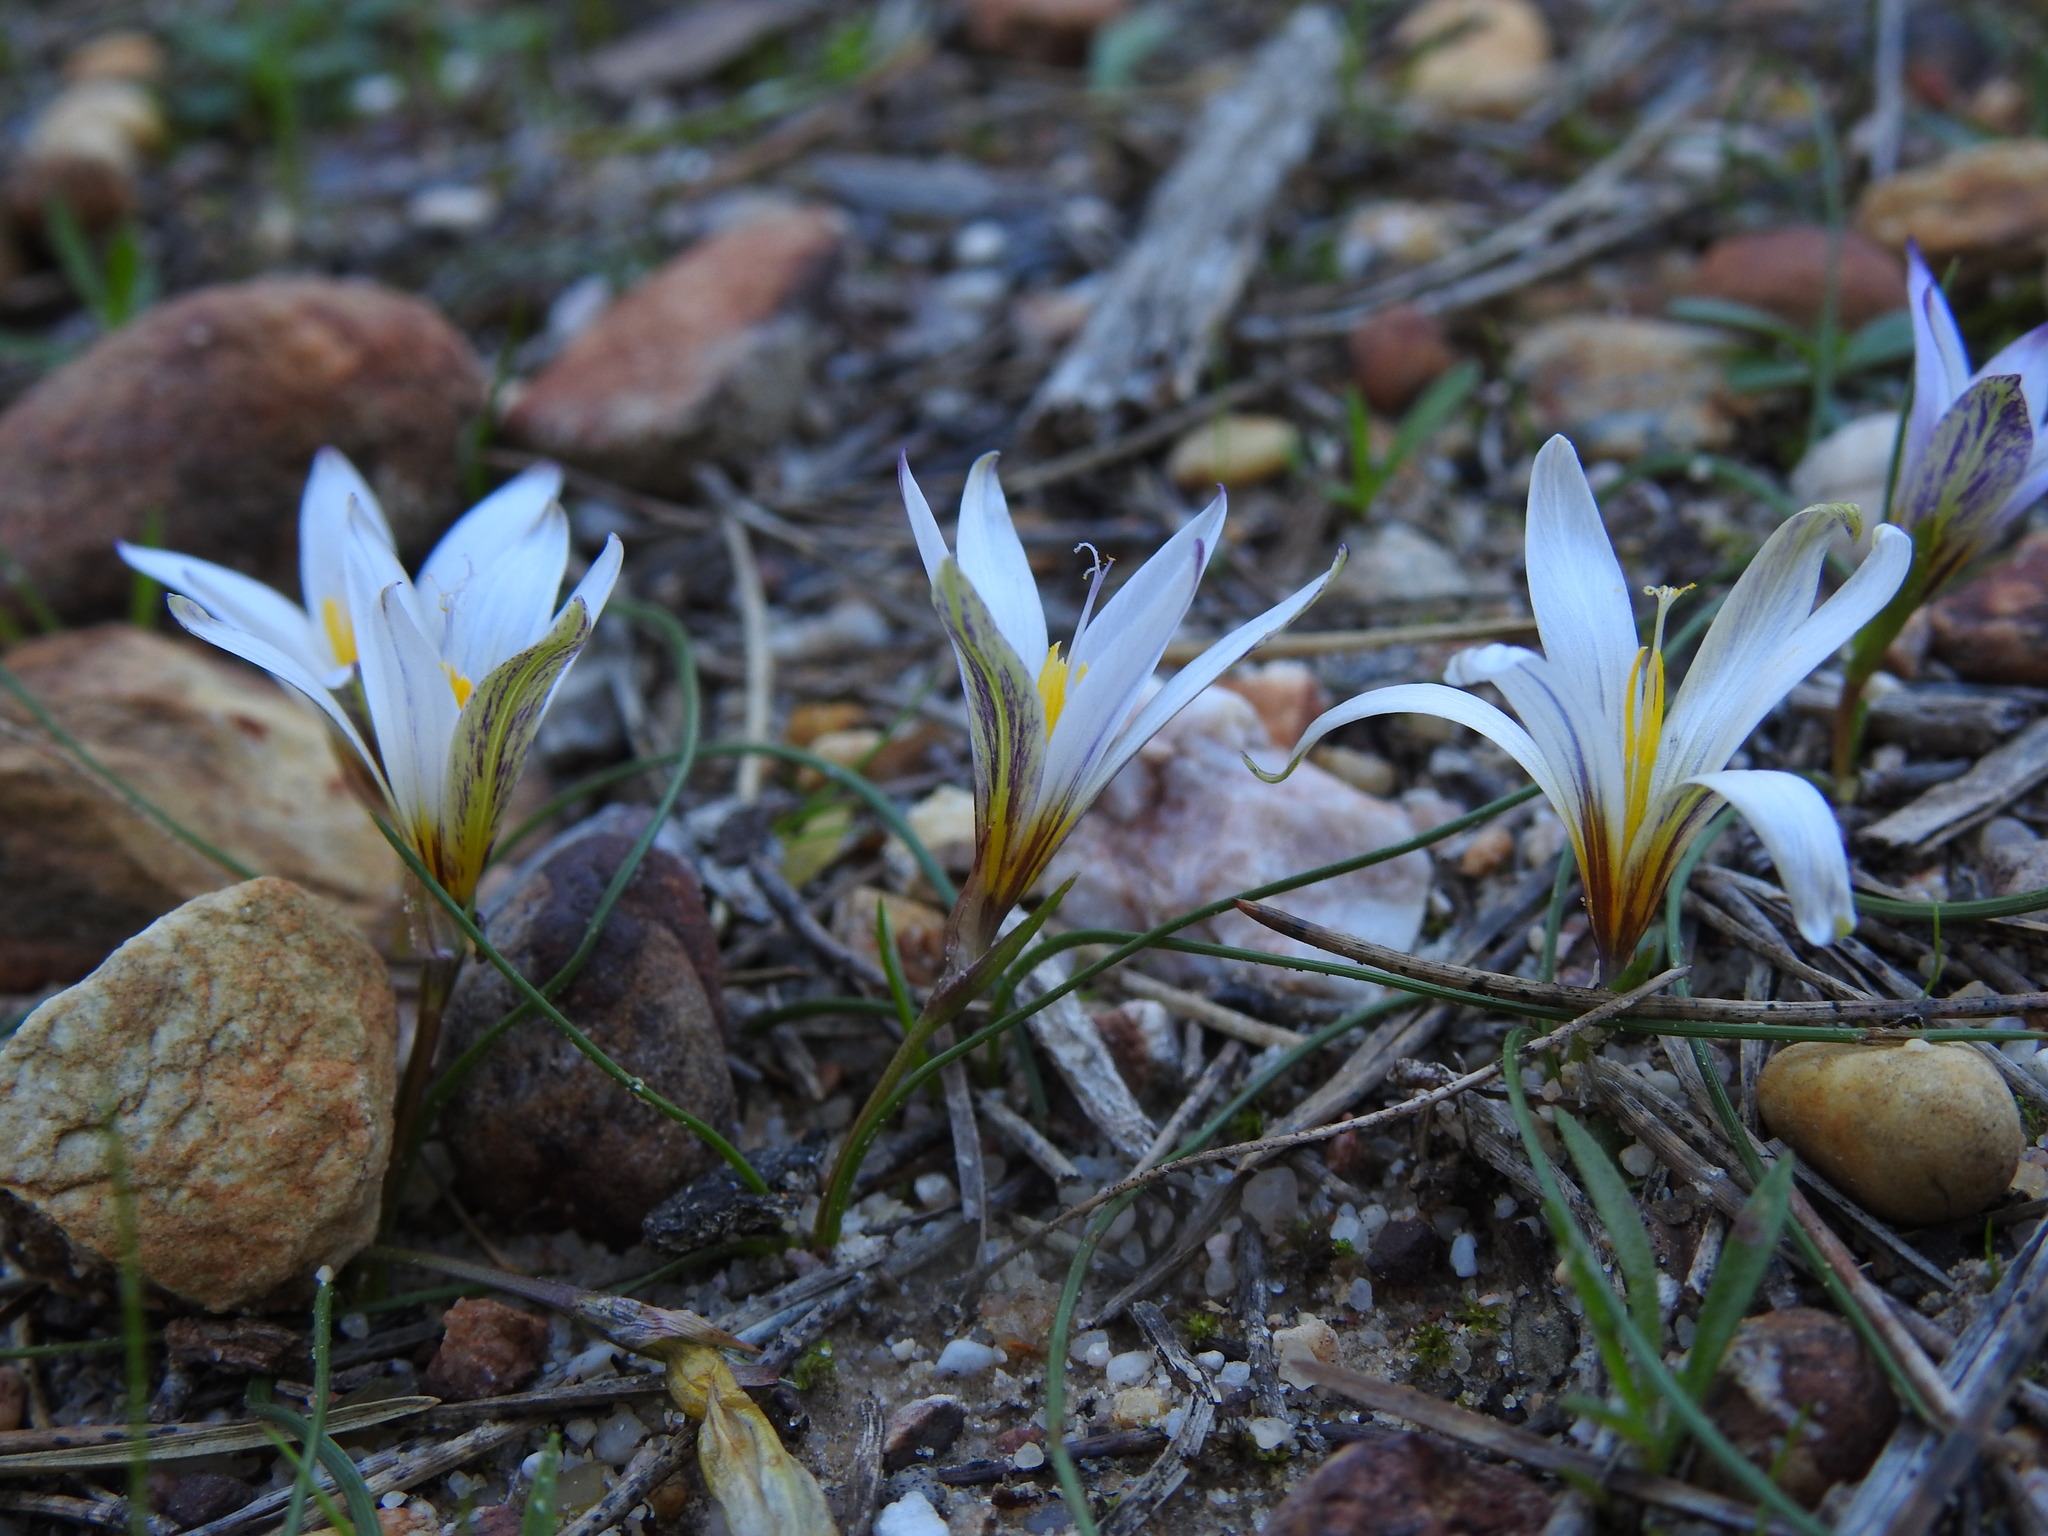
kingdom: Plantae
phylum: Tracheophyta
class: Liliopsida
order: Asparagales
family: Iridaceae
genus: Romulea
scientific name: Romulea bulbocodium
